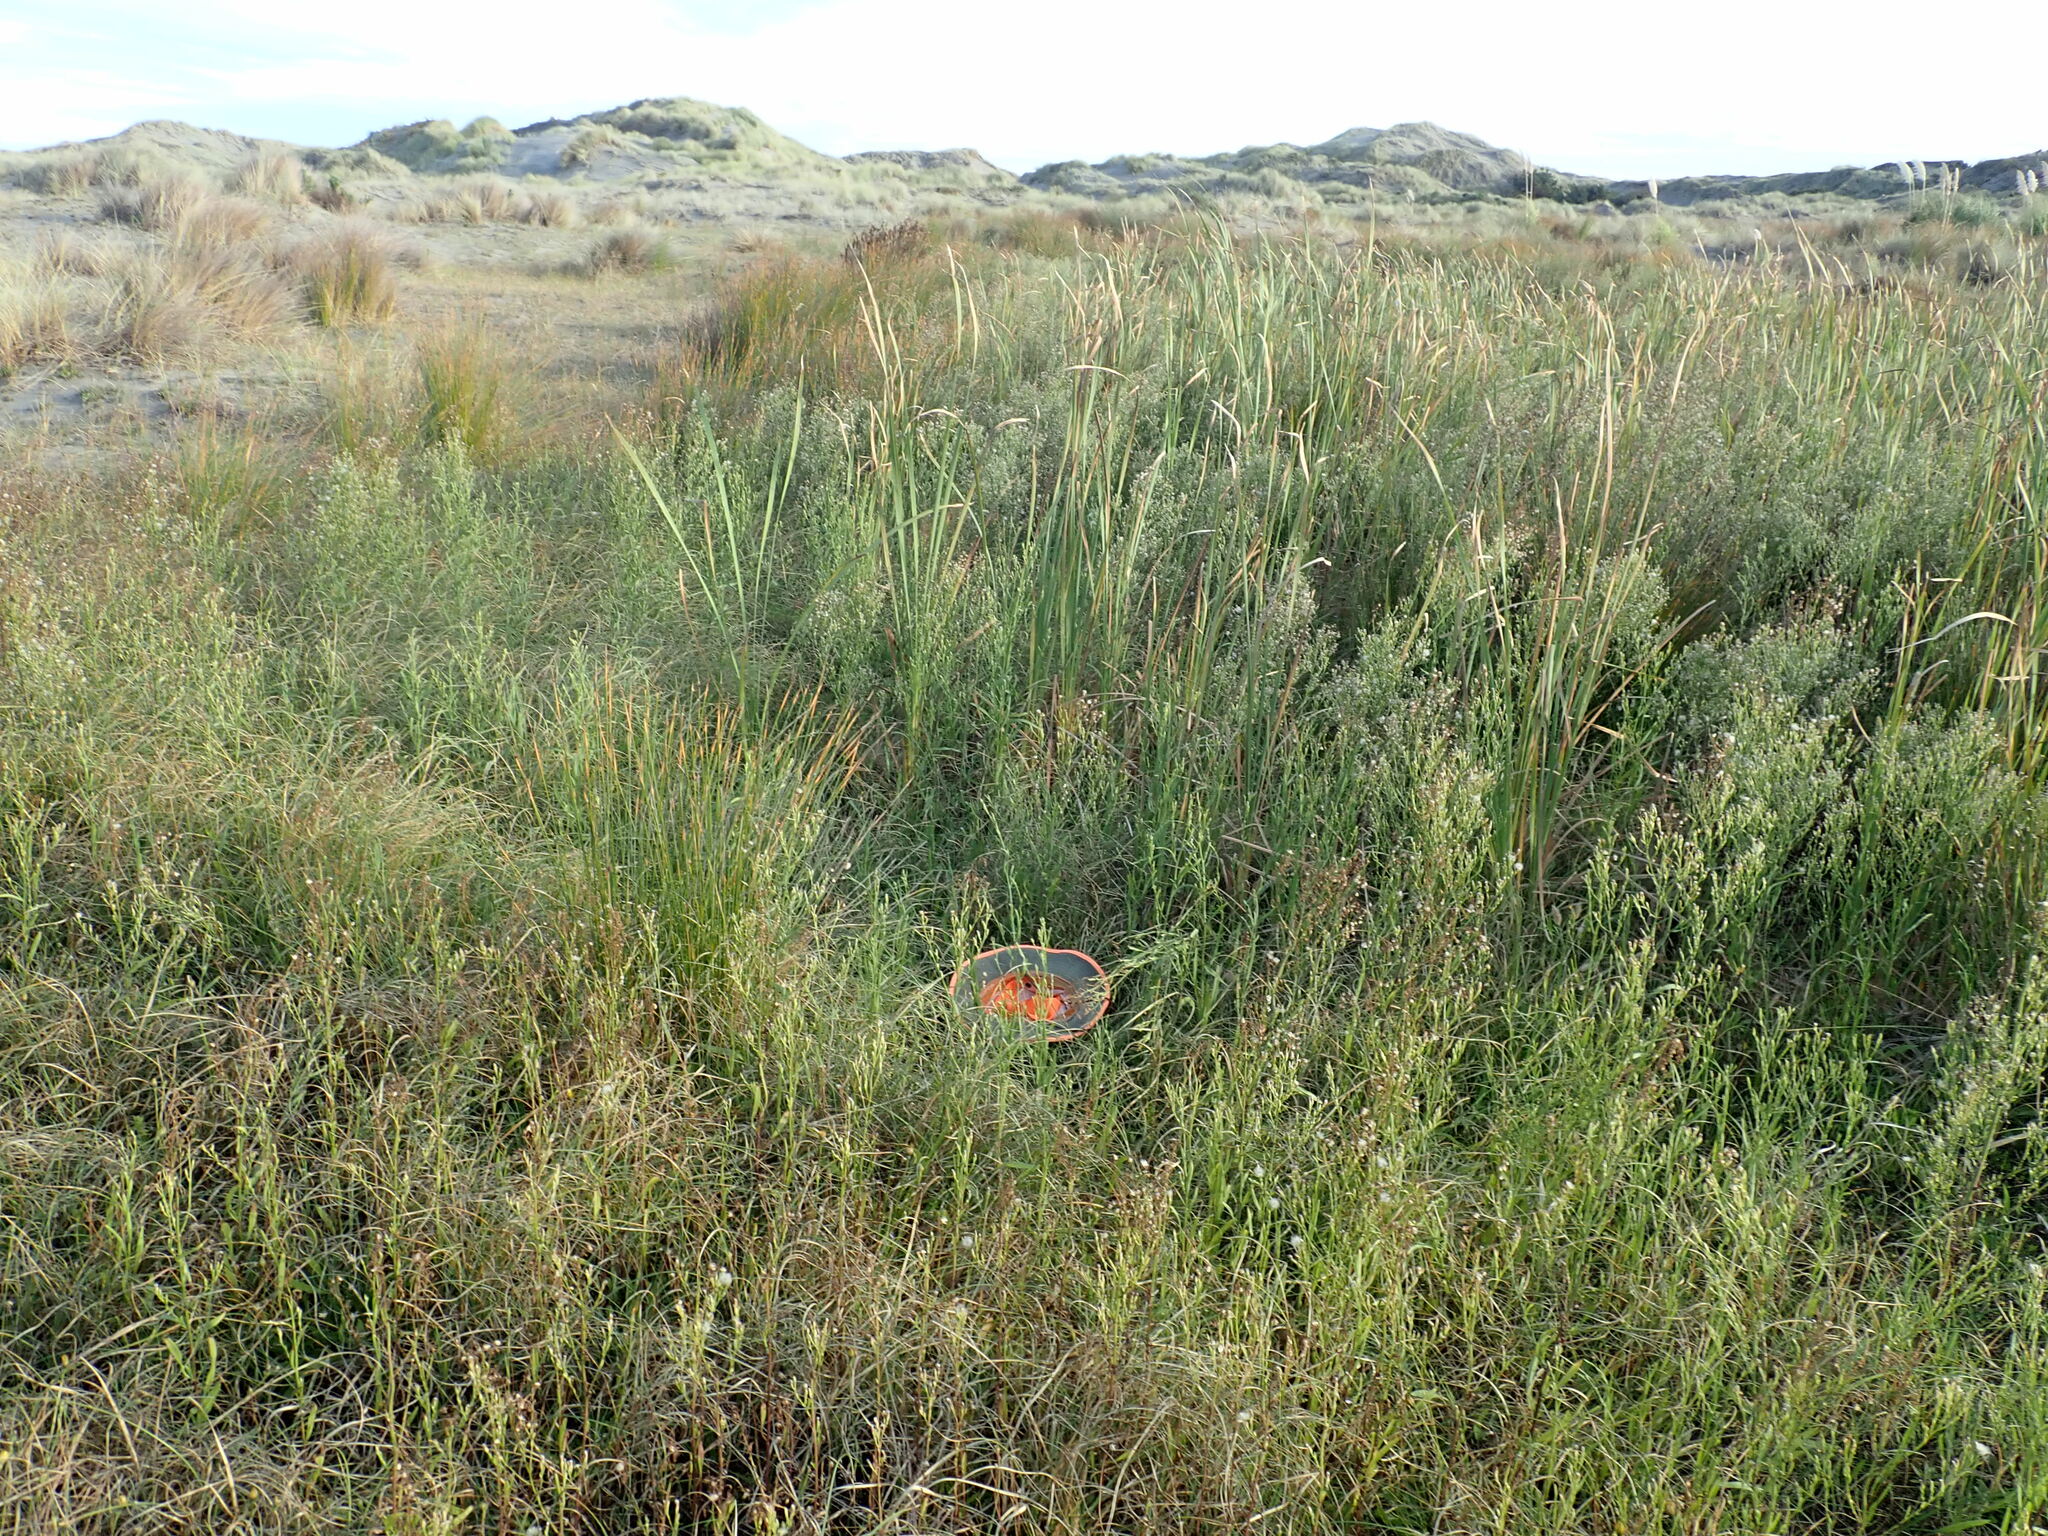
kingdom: Plantae
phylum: Tracheophyta
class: Magnoliopsida
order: Ranunculales
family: Ranunculaceae
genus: Ranunculus
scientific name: Ranunculus acaulis
